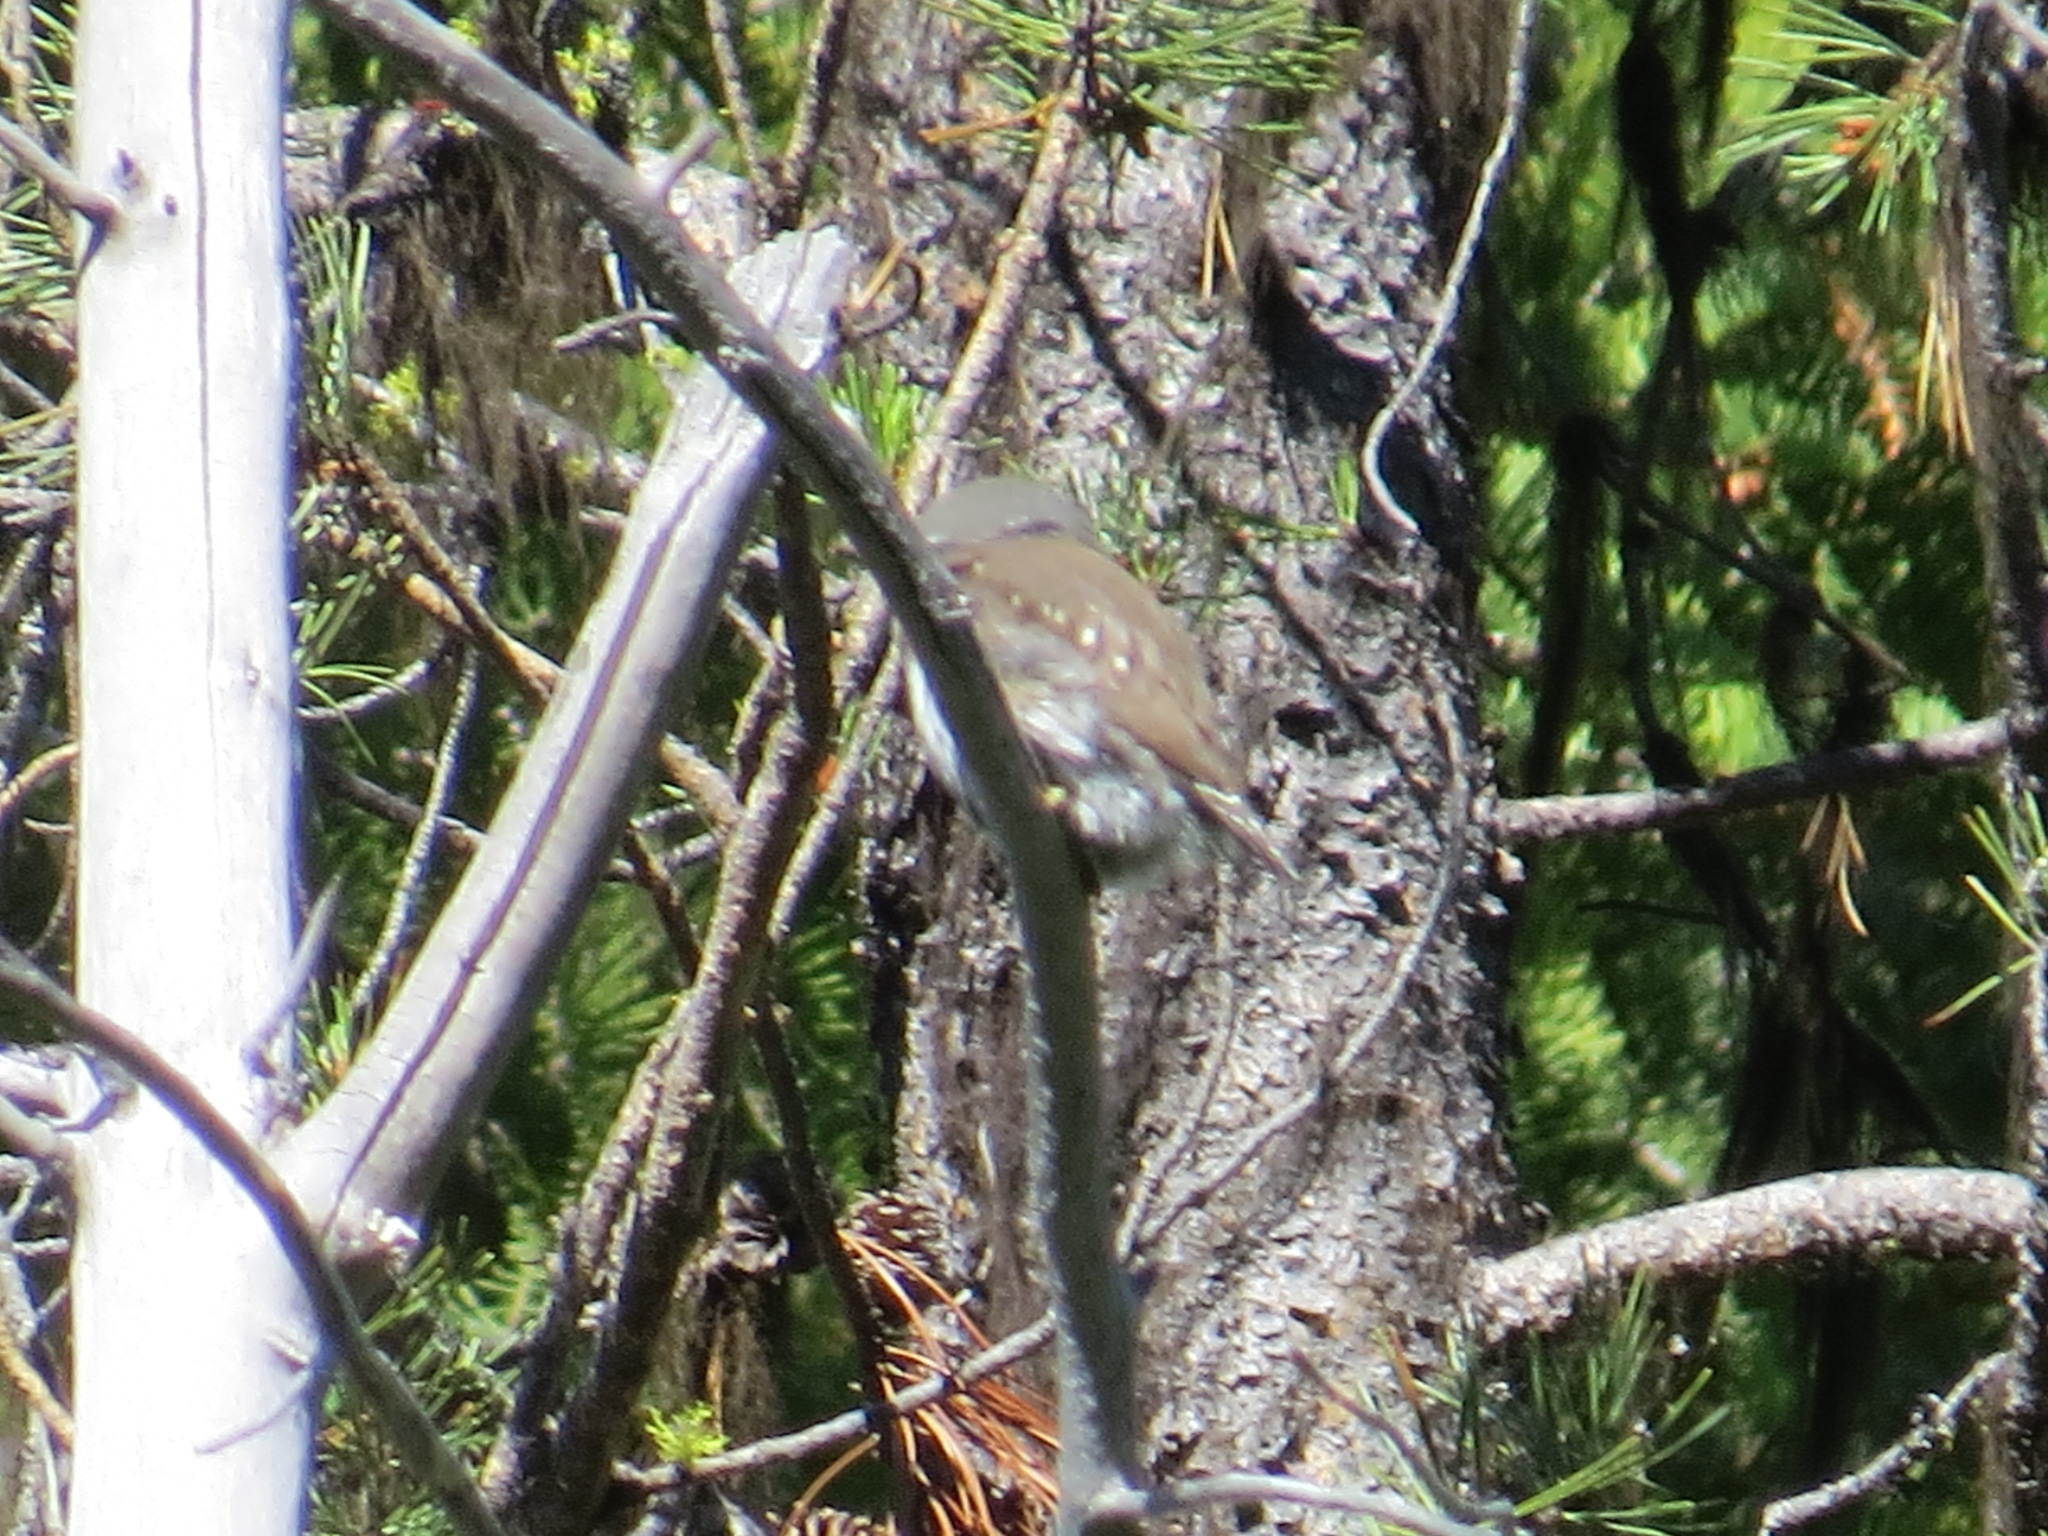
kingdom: Animalia
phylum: Chordata
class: Aves
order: Strigiformes
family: Strigidae
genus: Glaucidium
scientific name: Glaucidium gnoma
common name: Northern pygmy-owl
